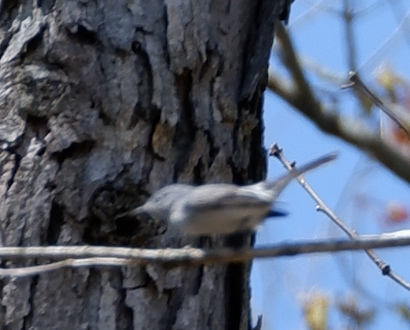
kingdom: Animalia
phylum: Chordata
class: Aves
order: Passeriformes
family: Polioptilidae
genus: Polioptila
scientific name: Polioptila caerulea
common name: Blue-gray gnatcatcher
